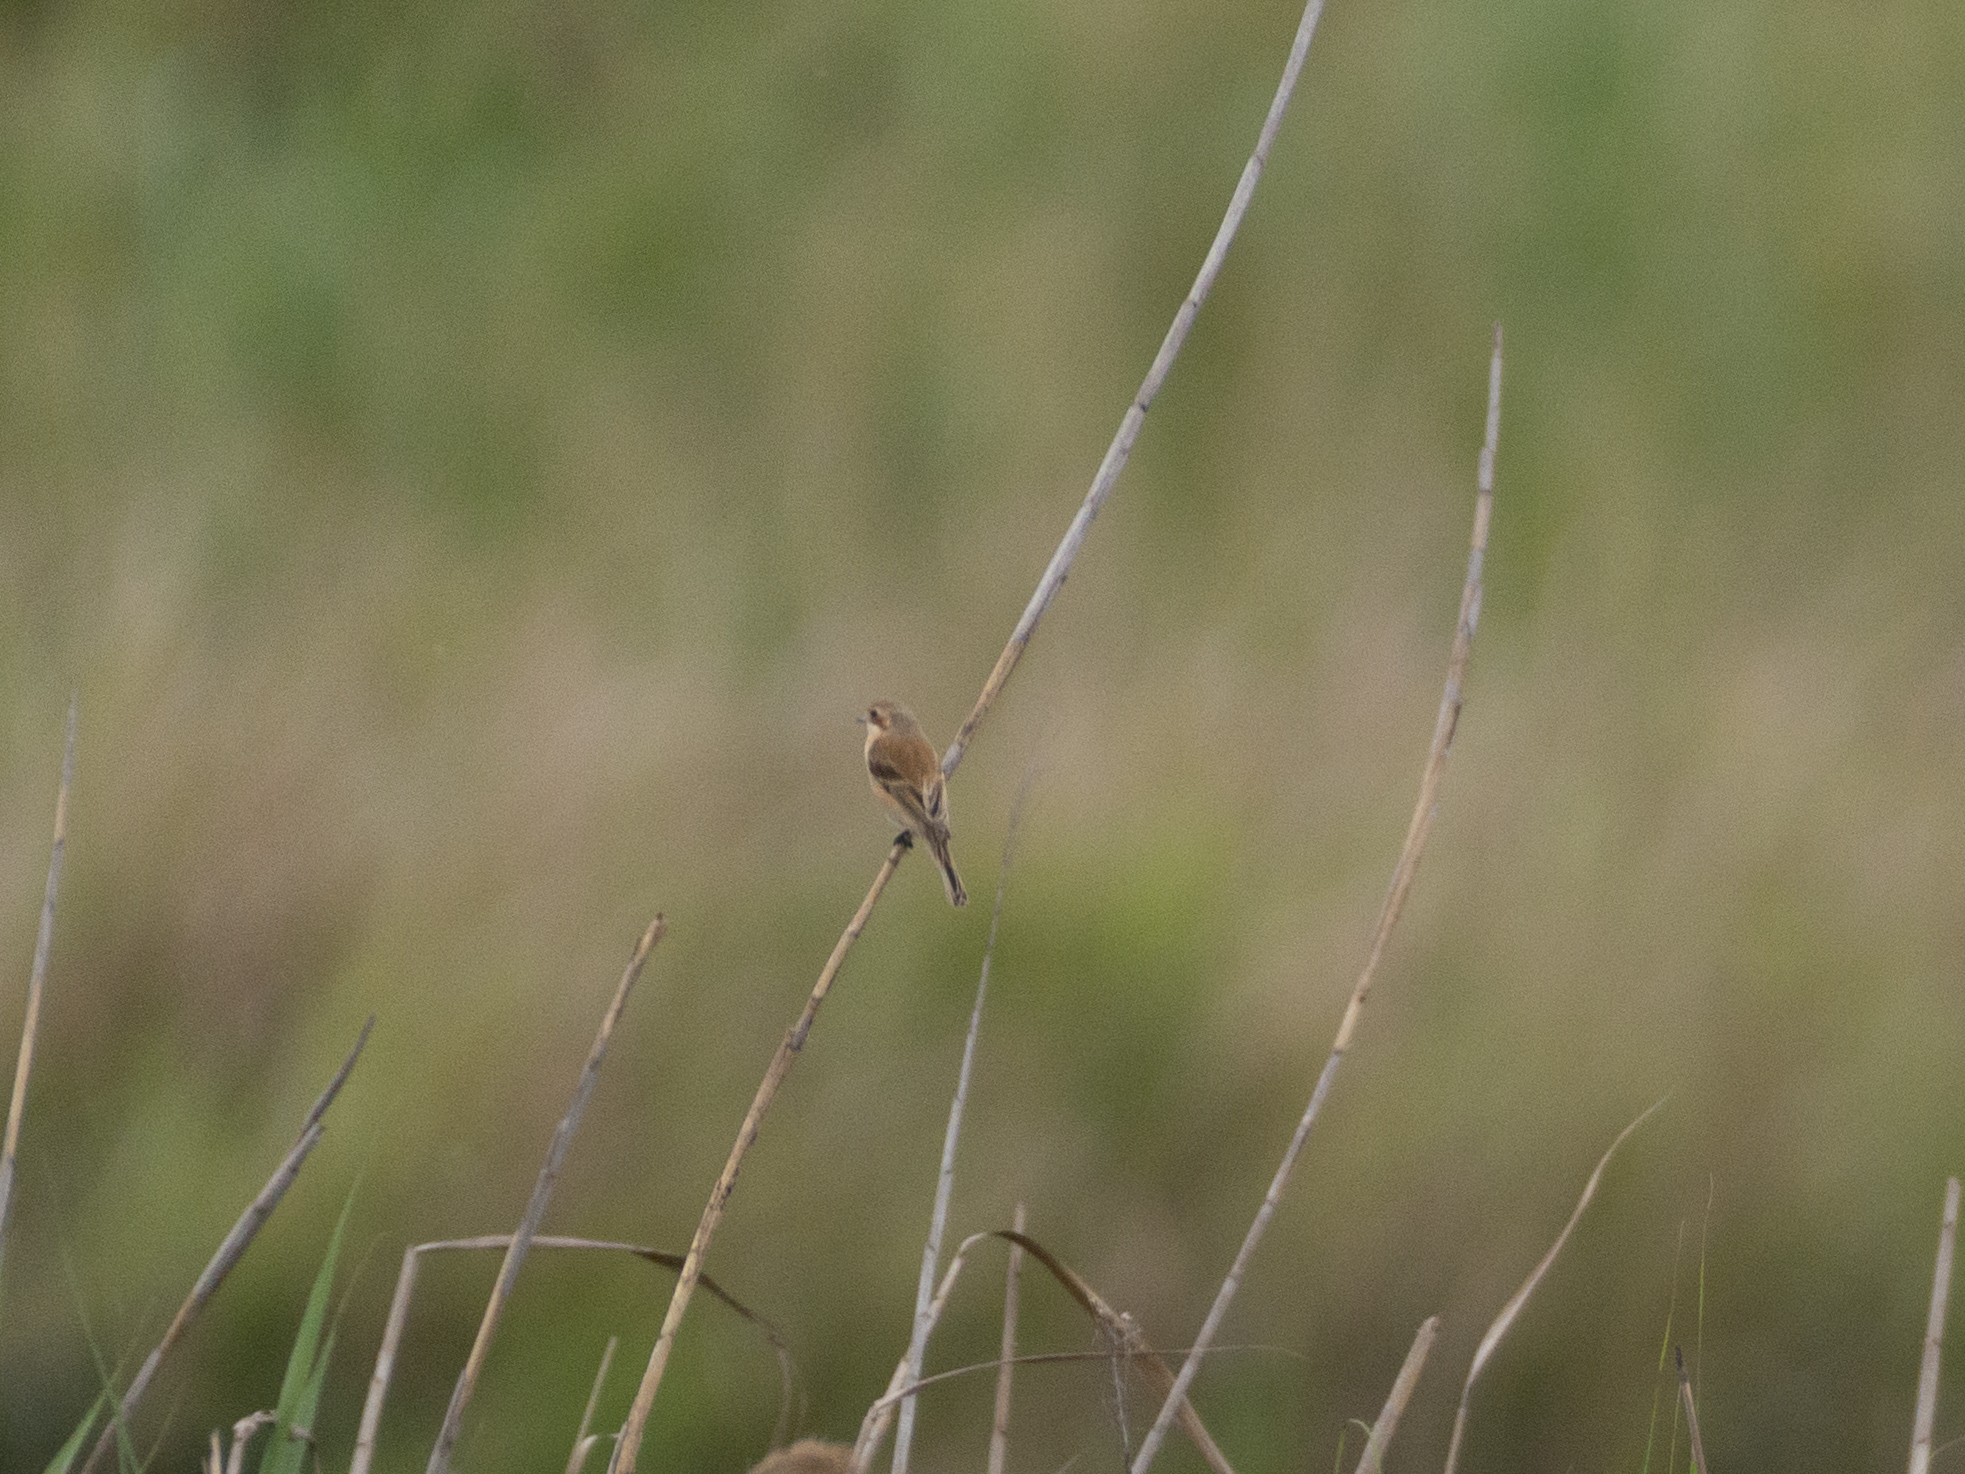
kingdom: Animalia
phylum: Chordata
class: Aves
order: Passeriformes
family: Remizidae
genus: Remiz
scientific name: Remiz consobrinus
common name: Chinese penduline tit
